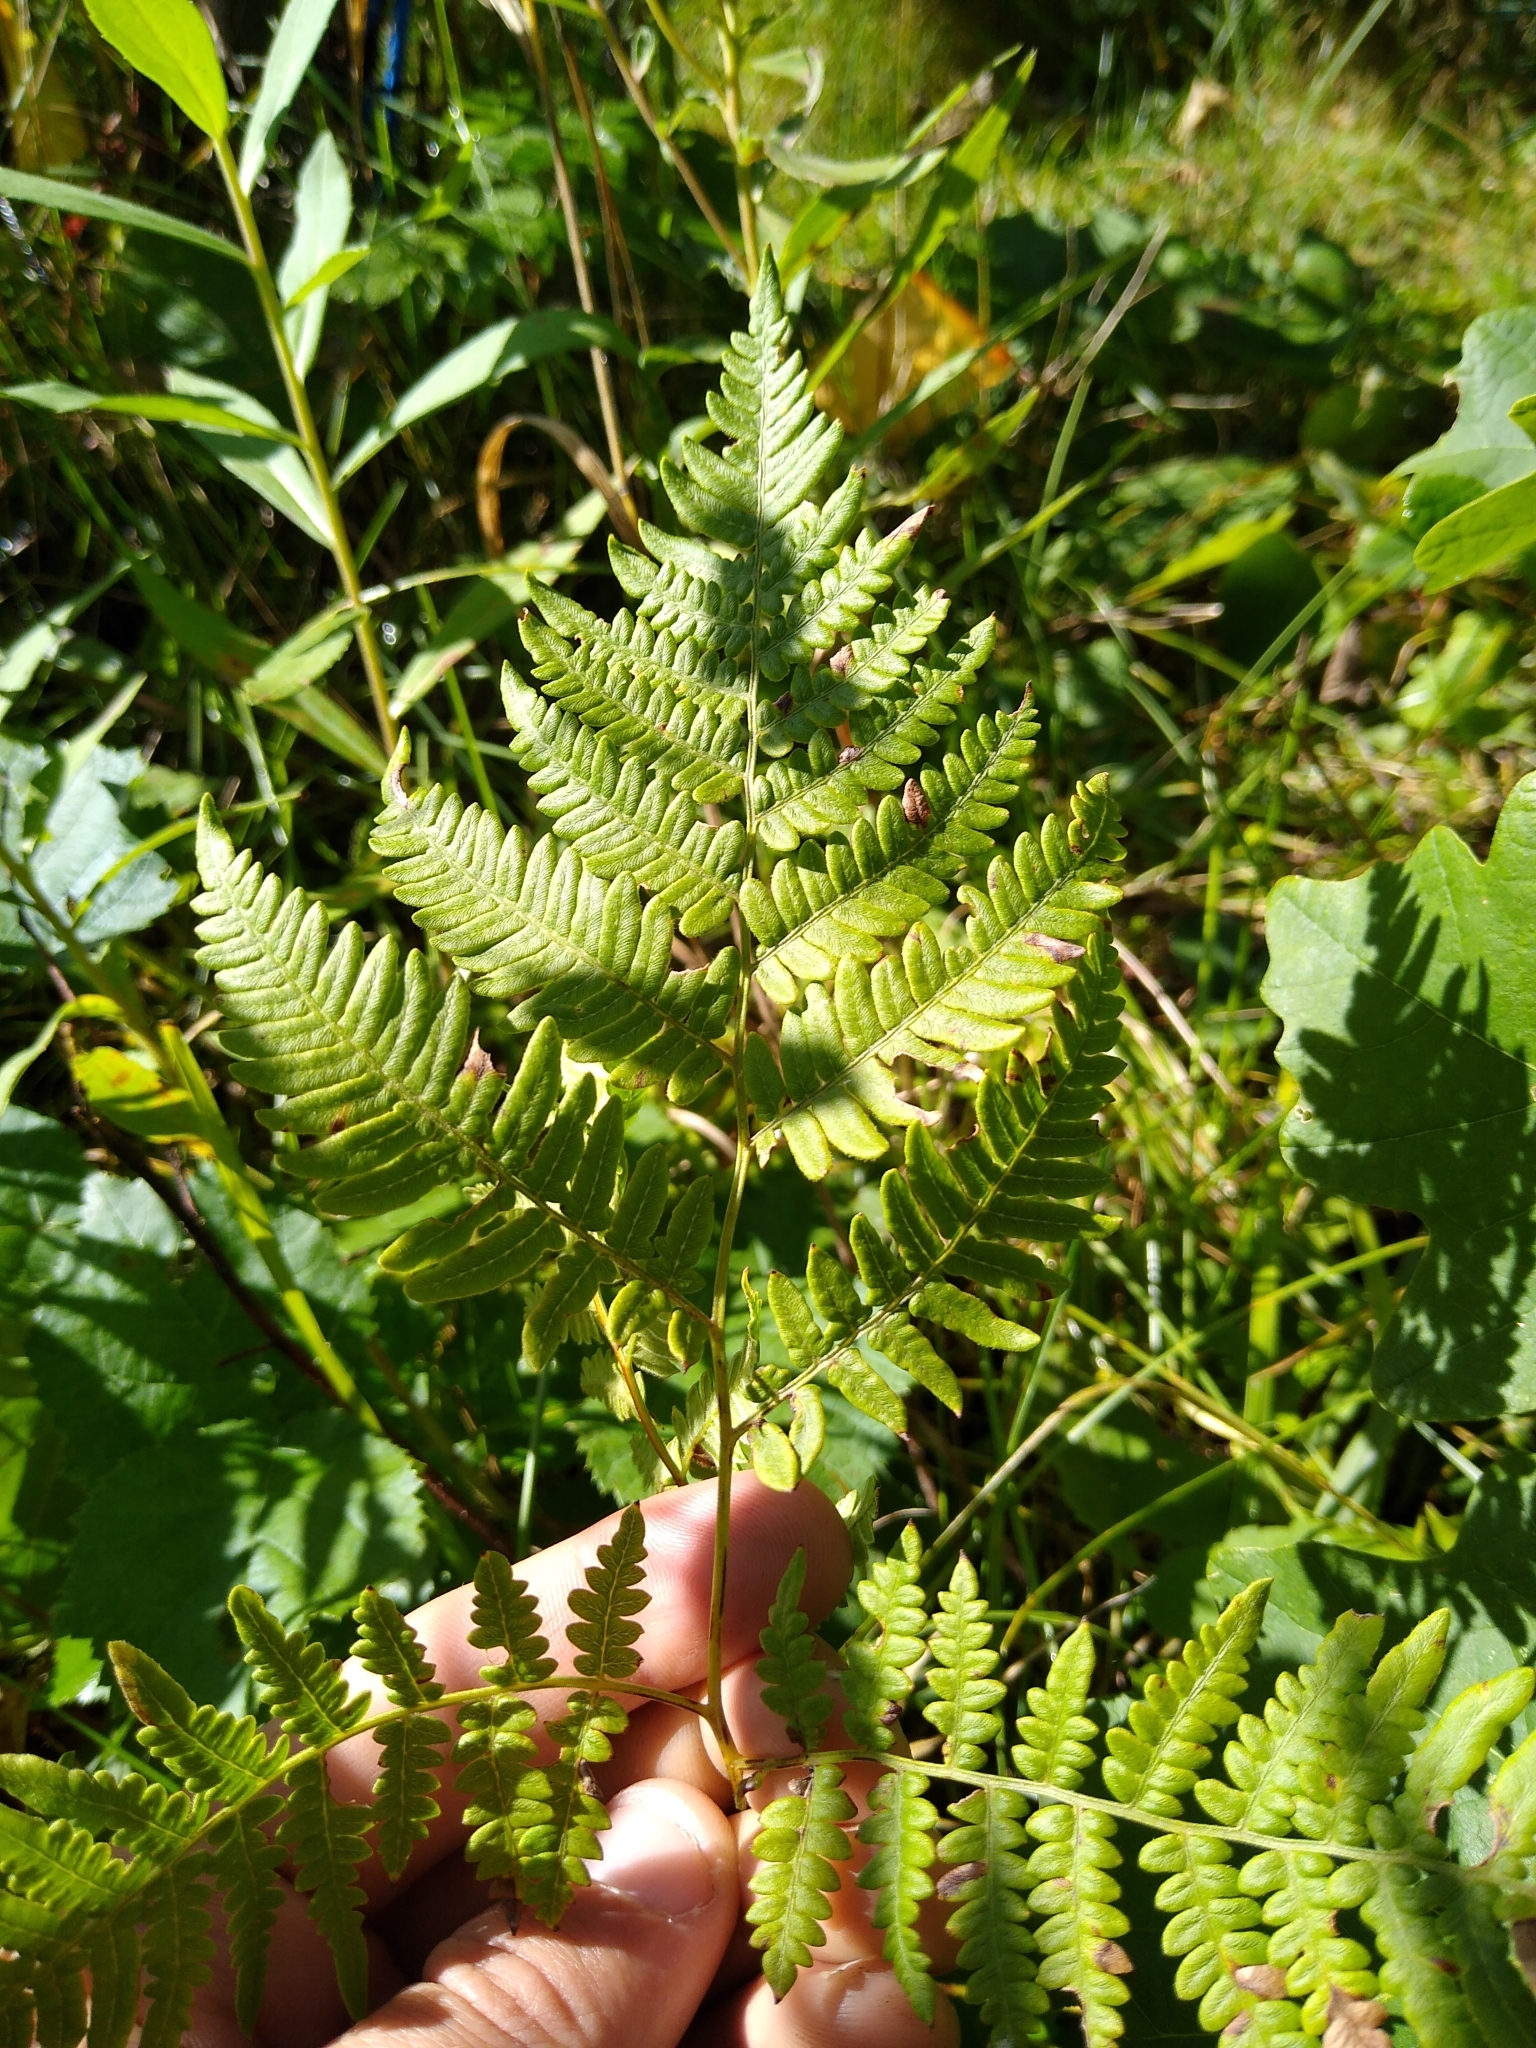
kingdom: Plantae
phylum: Tracheophyta
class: Polypodiopsida
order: Polypodiales
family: Dennstaedtiaceae
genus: Pteridium
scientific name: Pteridium aquilinum
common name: Bracken
